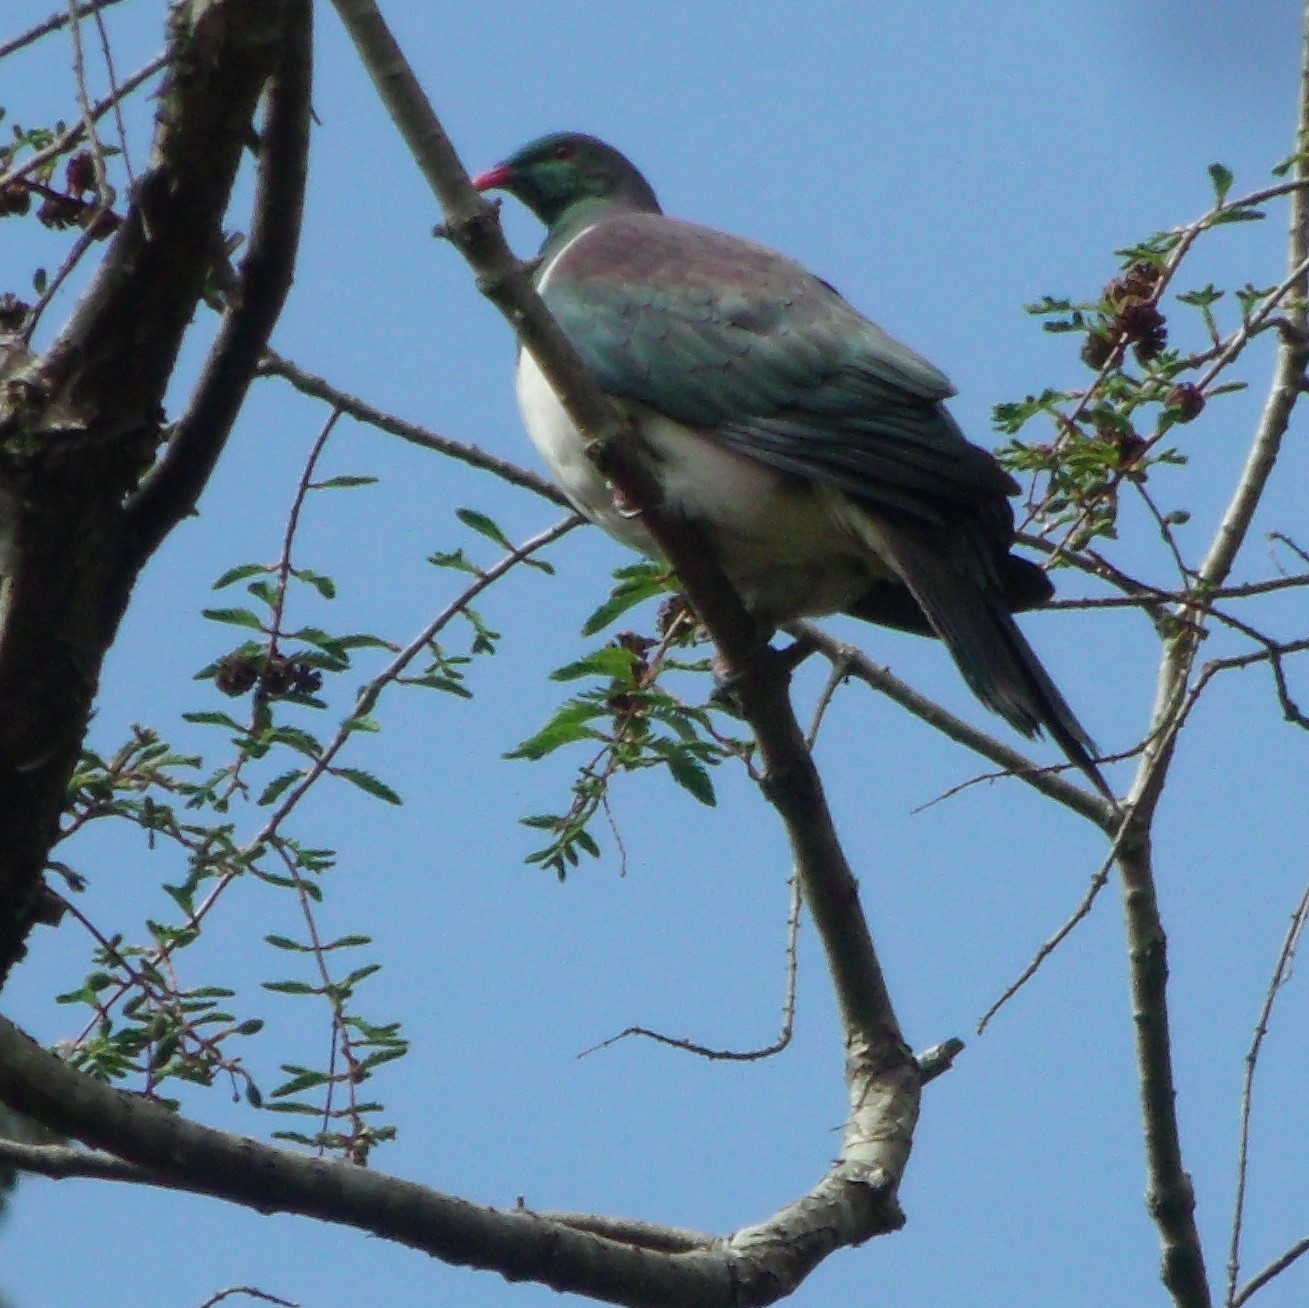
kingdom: Animalia
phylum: Chordata
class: Aves
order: Columbiformes
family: Columbidae
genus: Hemiphaga
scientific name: Hemiphaga novaeseelandiae
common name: New zealand pigeon
